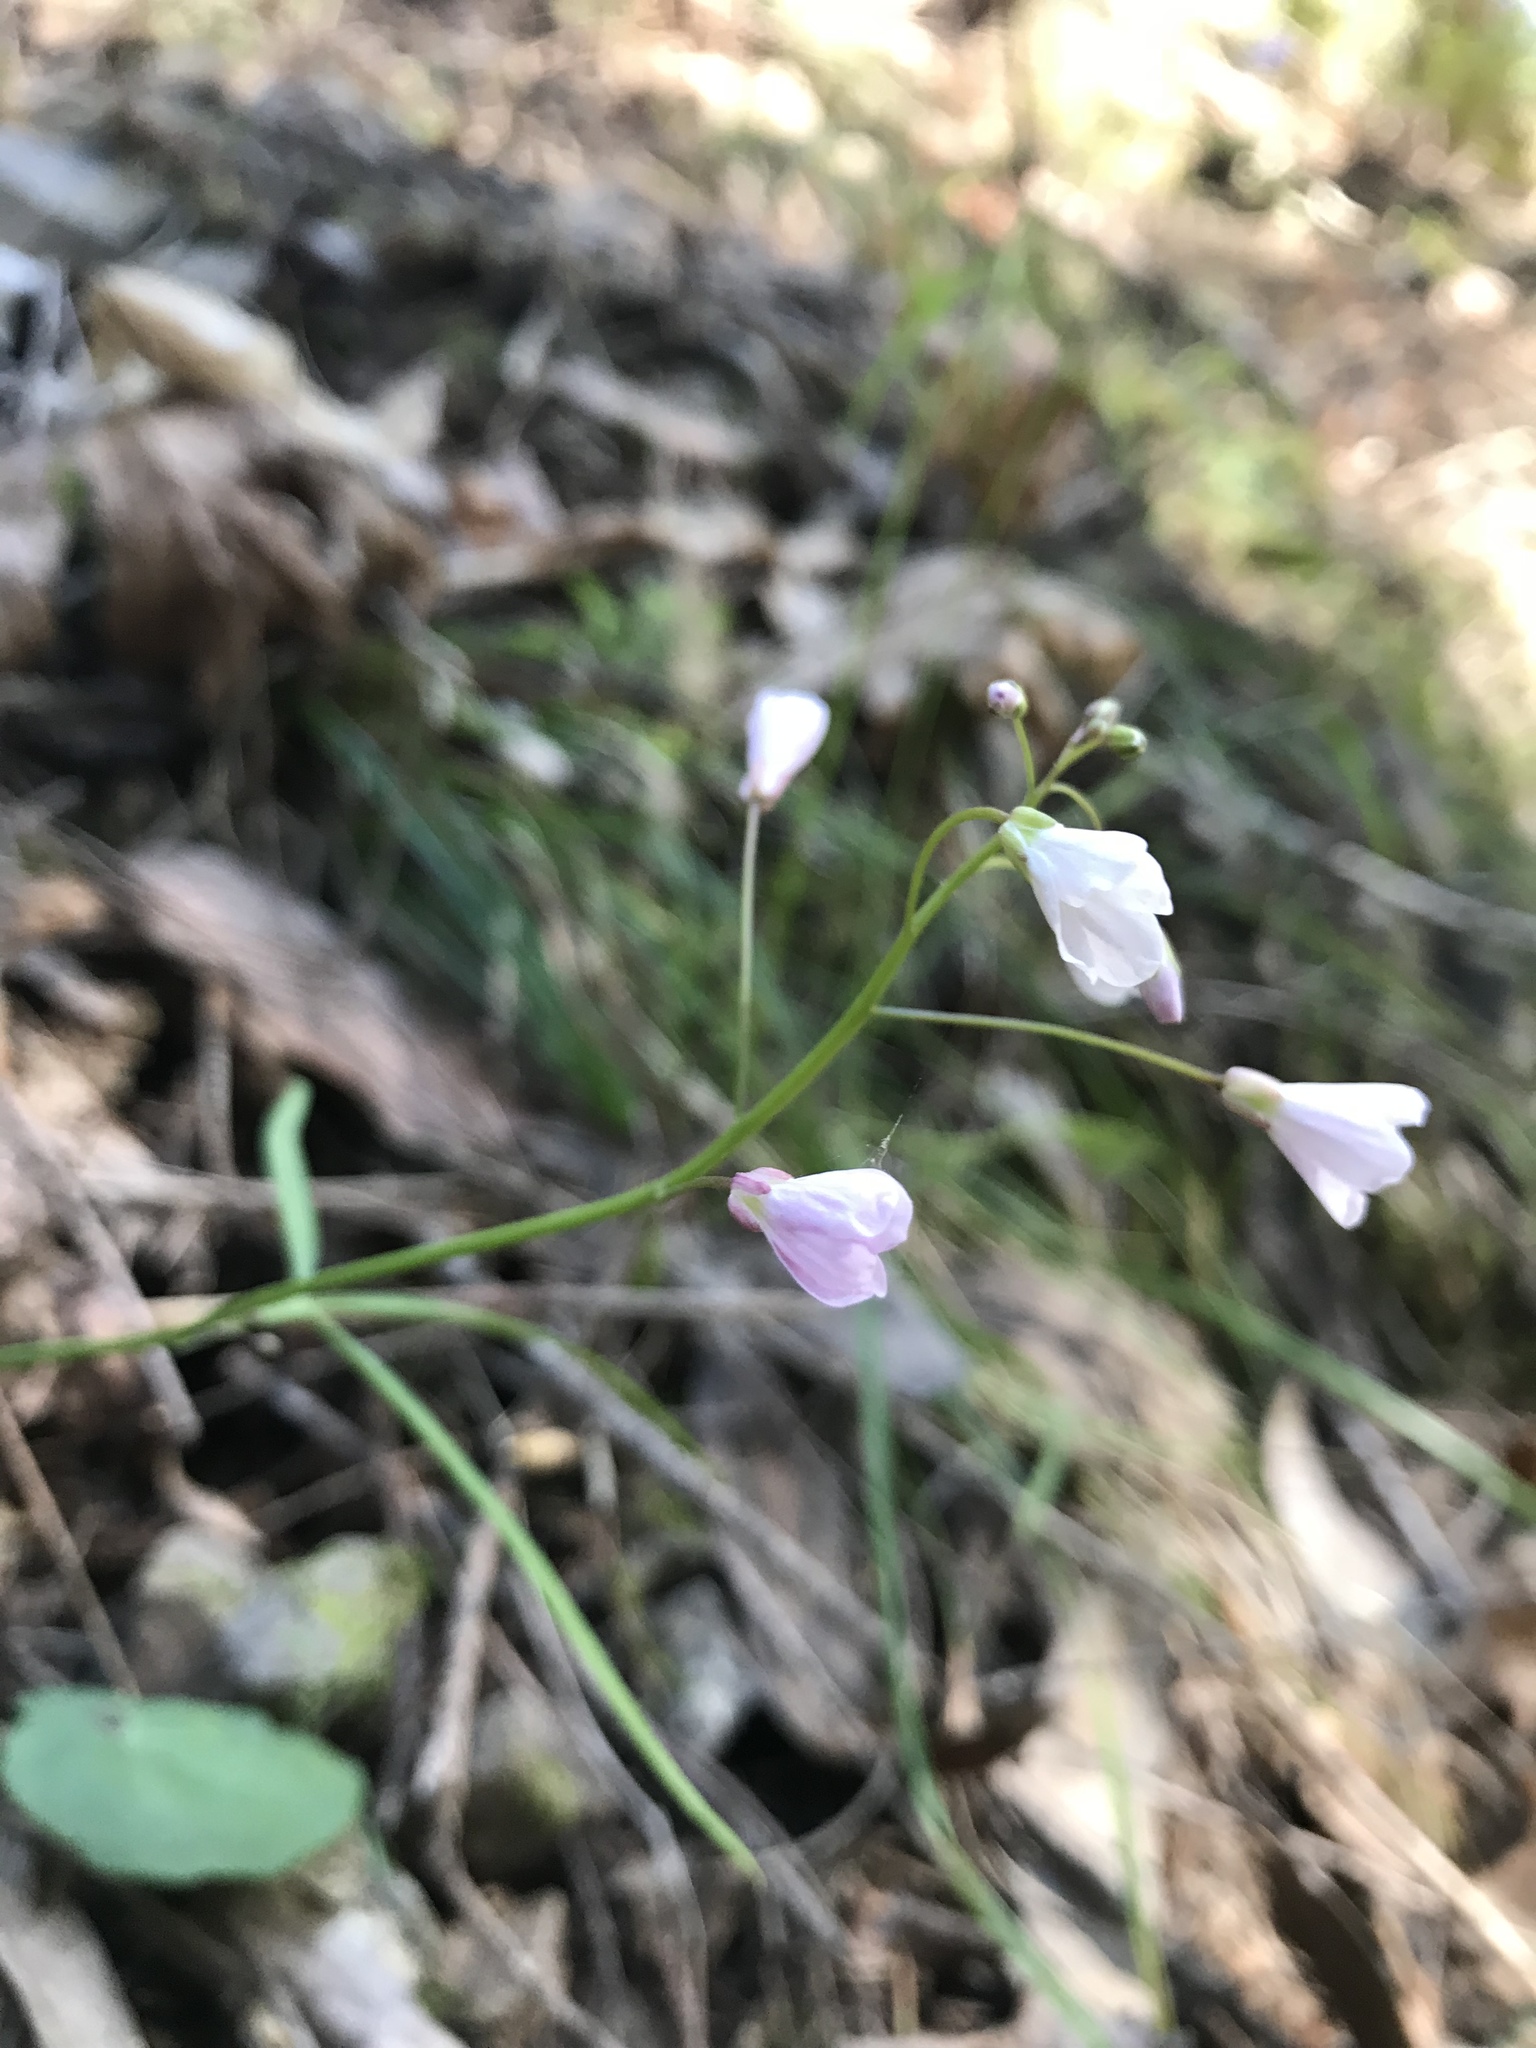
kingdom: Plantae
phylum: Tracheophyta
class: Magnoliopsida
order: Brassicales
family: Brassicaceae
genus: Cardamine
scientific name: Cardamine californica
